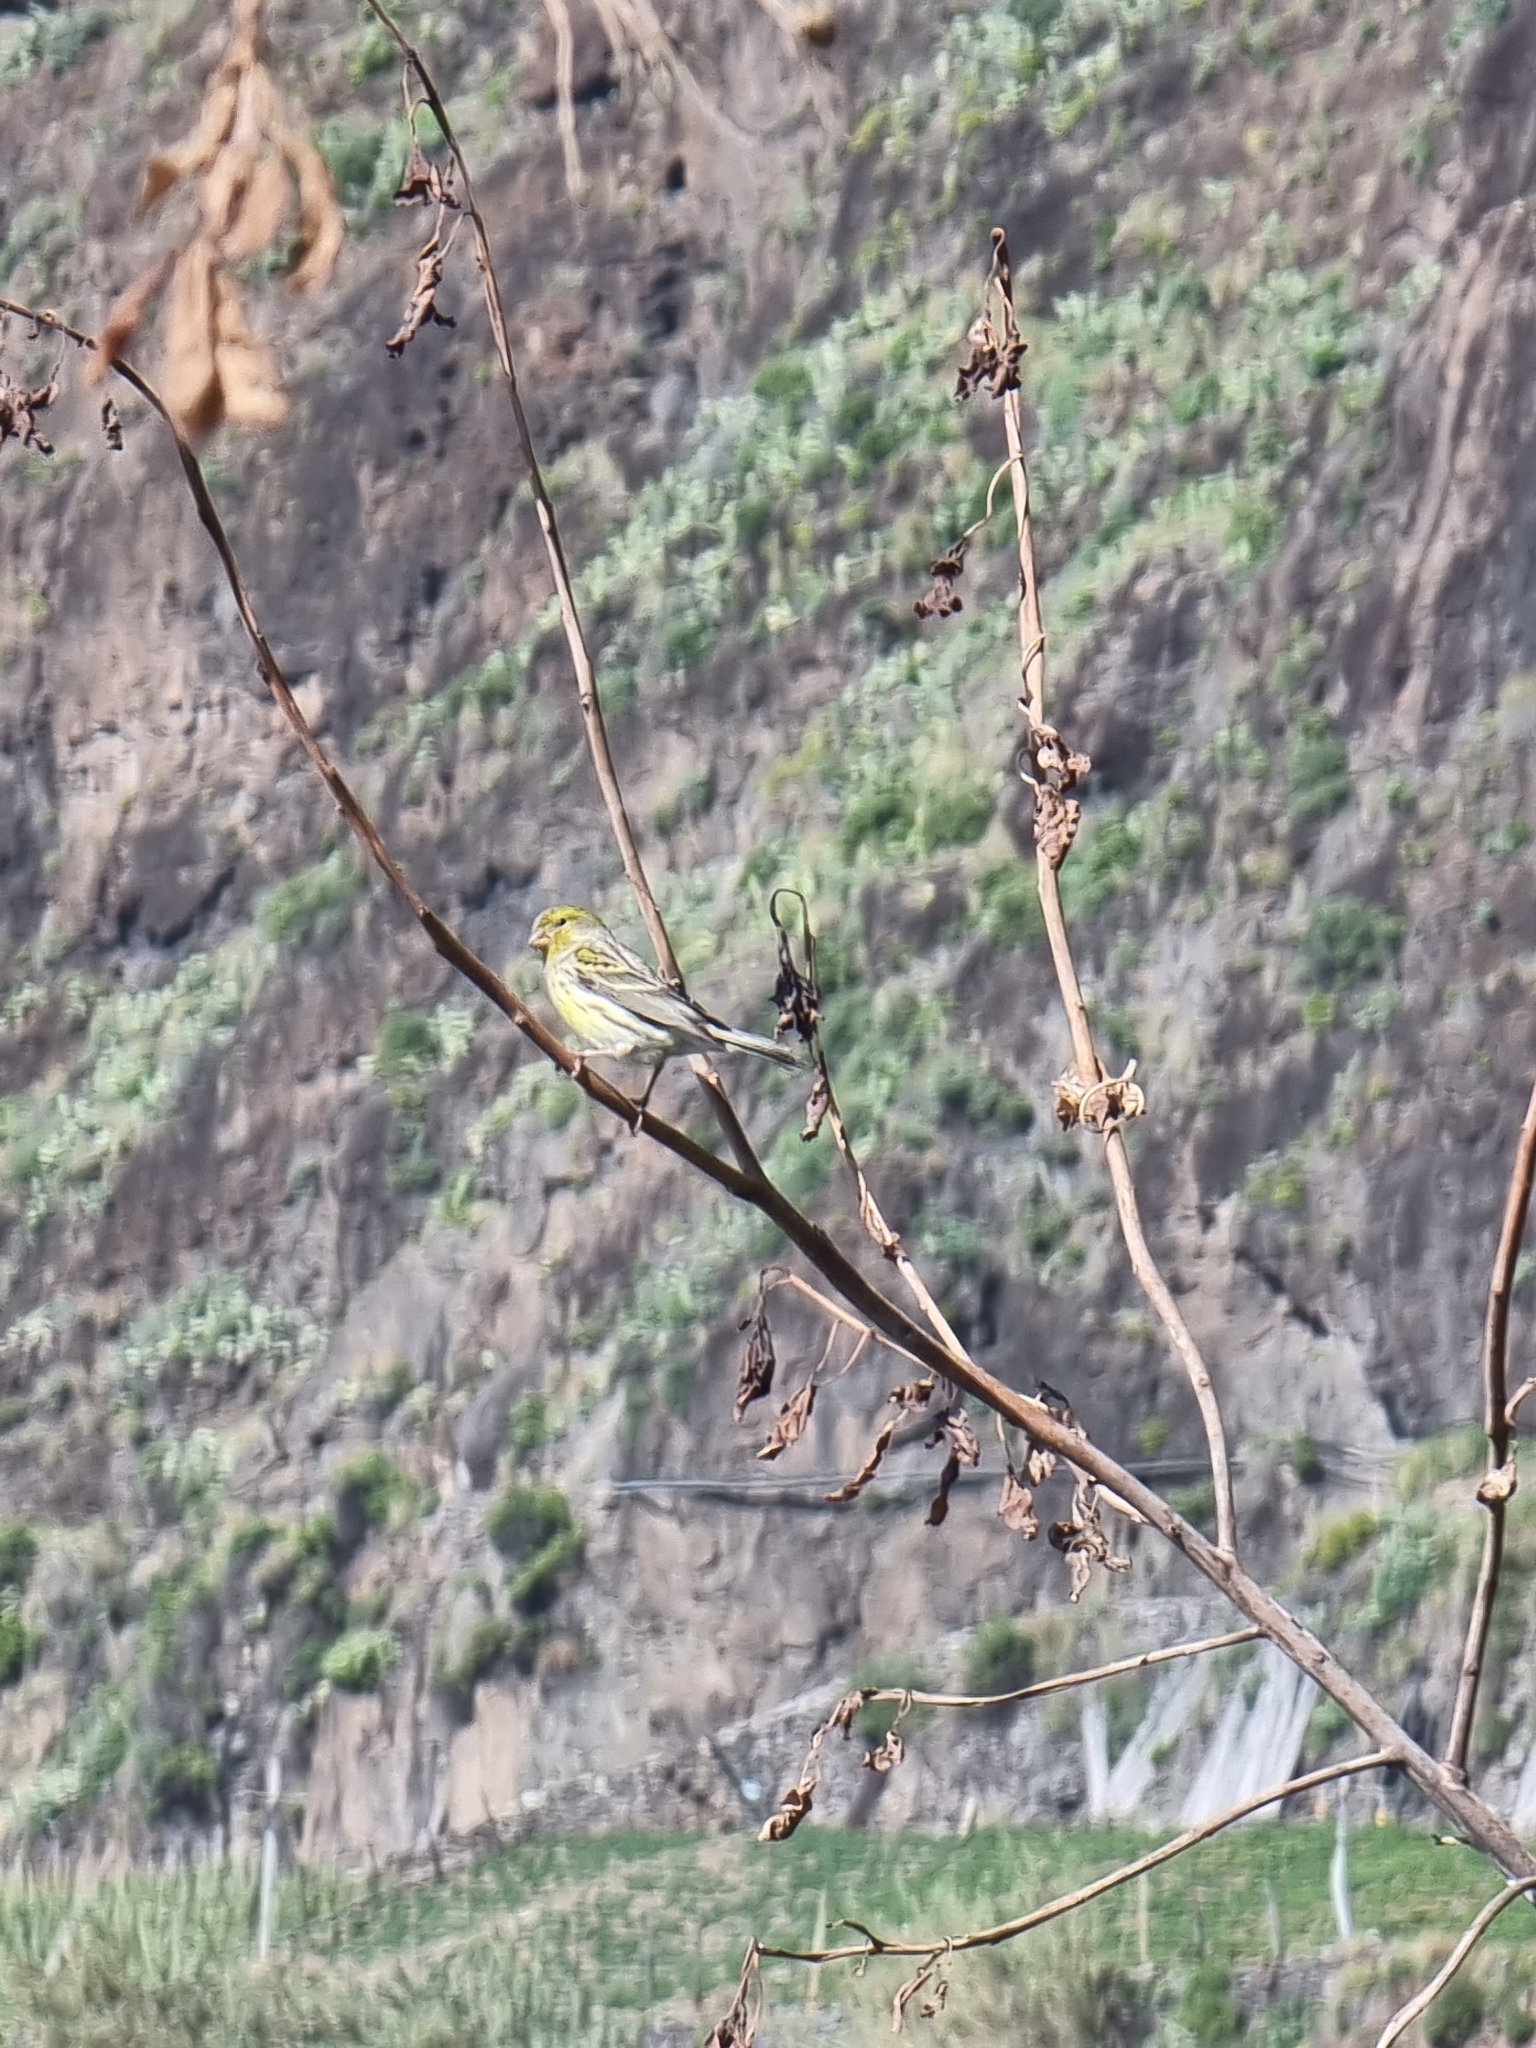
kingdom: Animalia
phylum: Chordata
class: Aves
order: Passeriformes
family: Fringillidae
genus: Serinus
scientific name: Serinus canaria
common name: Atlantic canary
